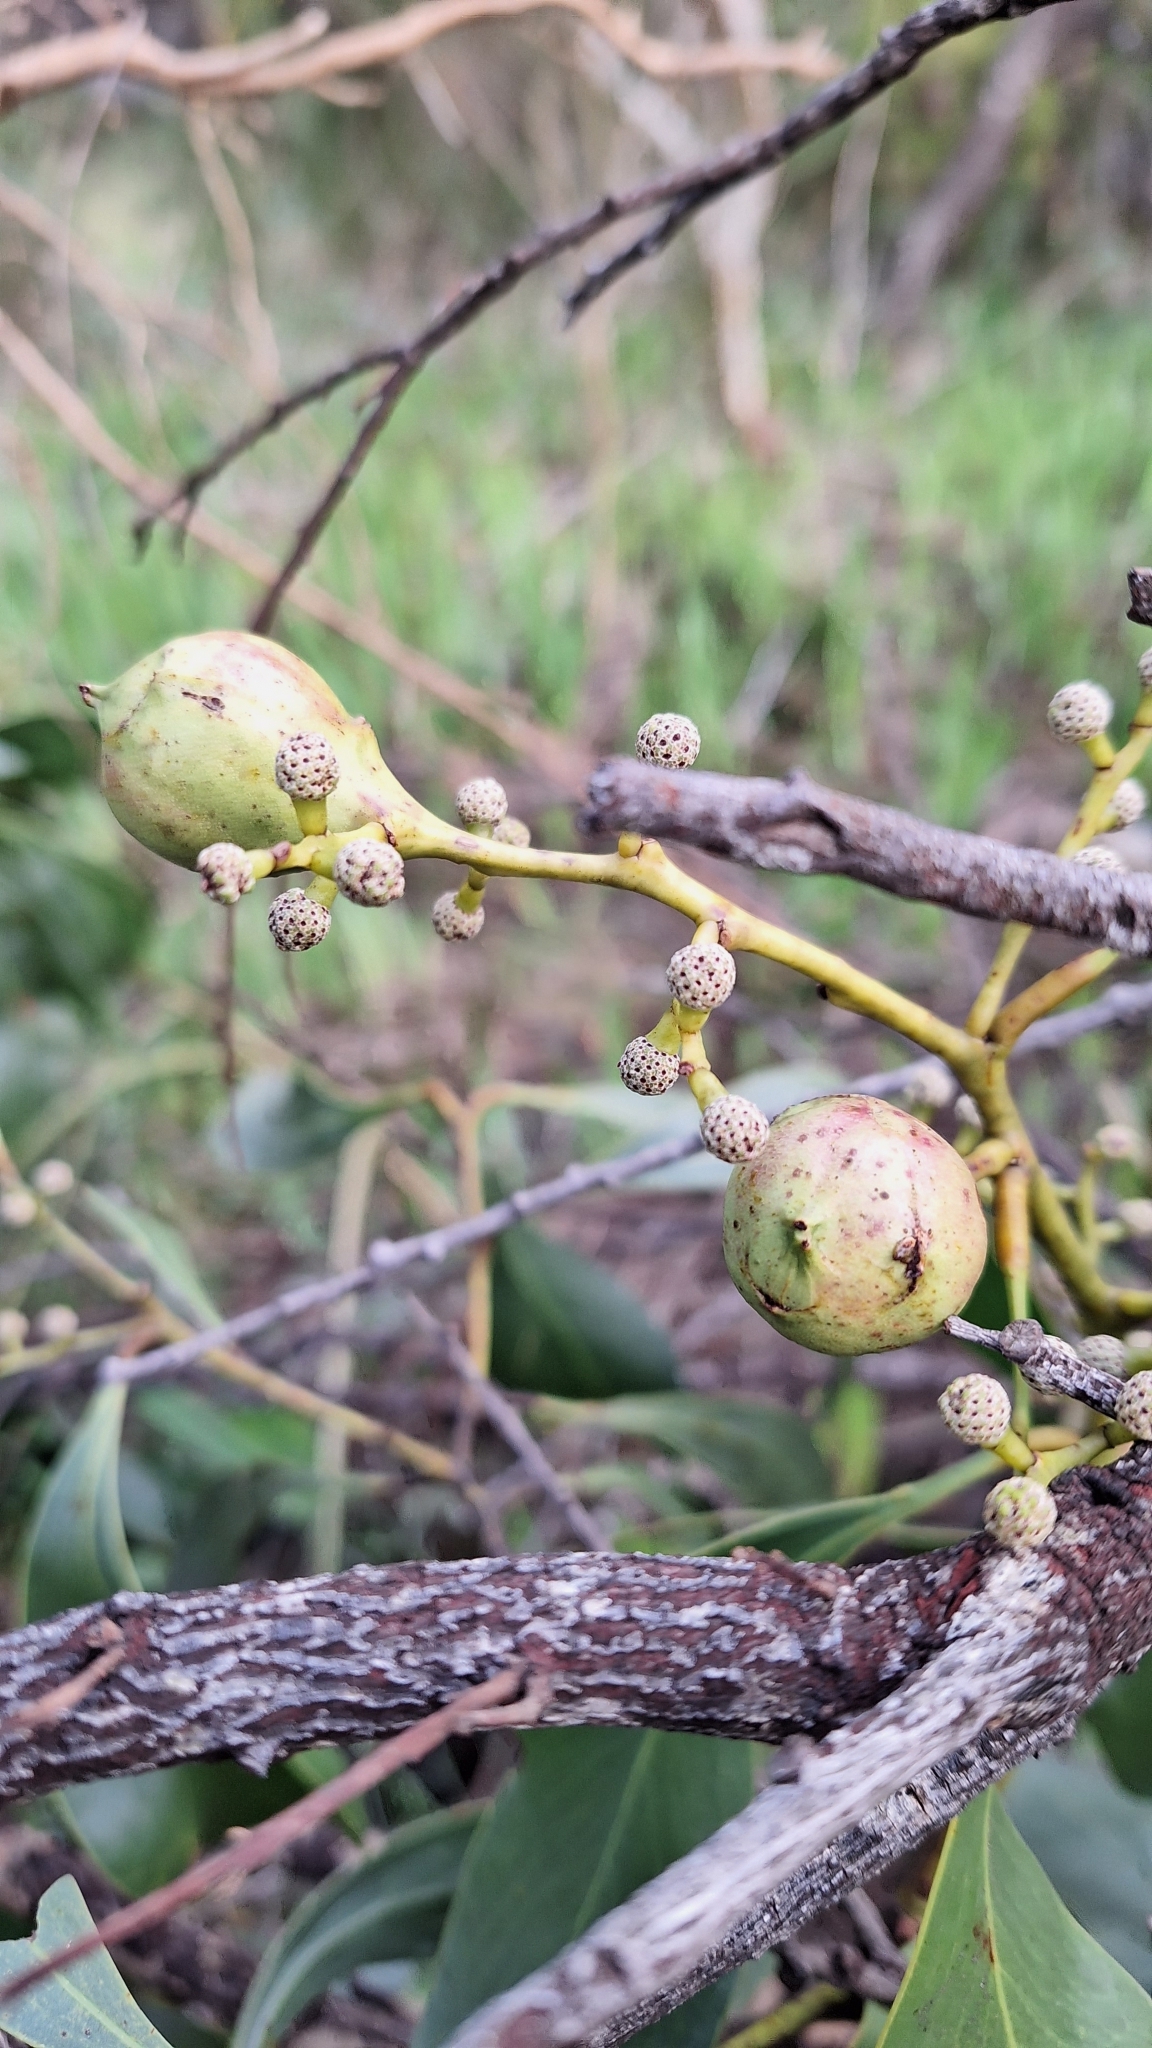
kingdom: Animalia
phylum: Arthropoda
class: Insecta
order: Hymenoptera
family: Pteromalidae
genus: Trichilogaster
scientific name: Trichilogaster signiventris
